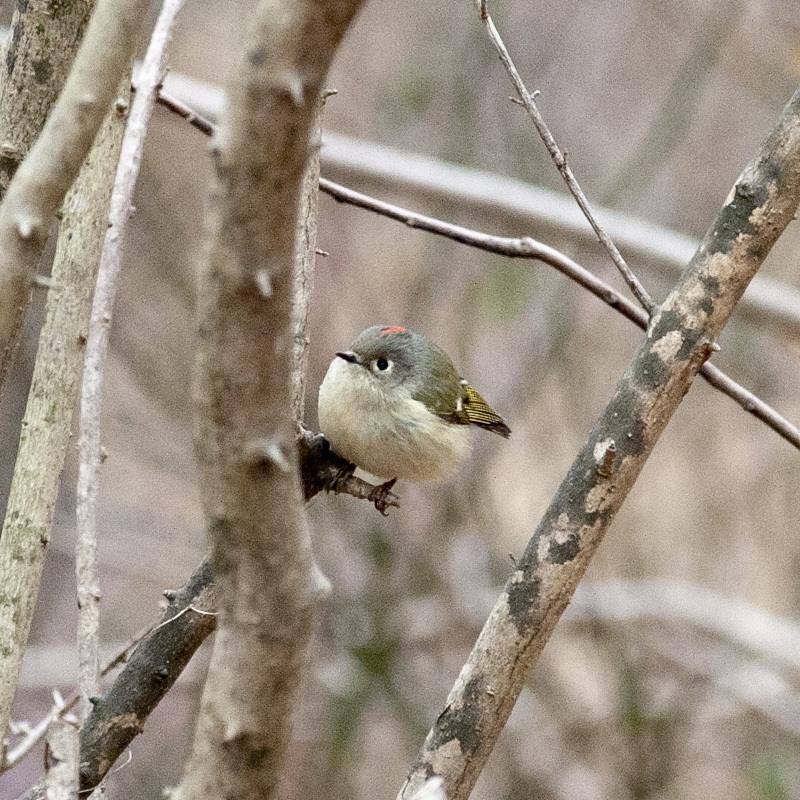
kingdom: Animalia
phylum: Chordata
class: Aves
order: Passeriformes
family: Regulidae
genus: Regulus
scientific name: Regulus calendula
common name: Ruby-crowned kinglet
